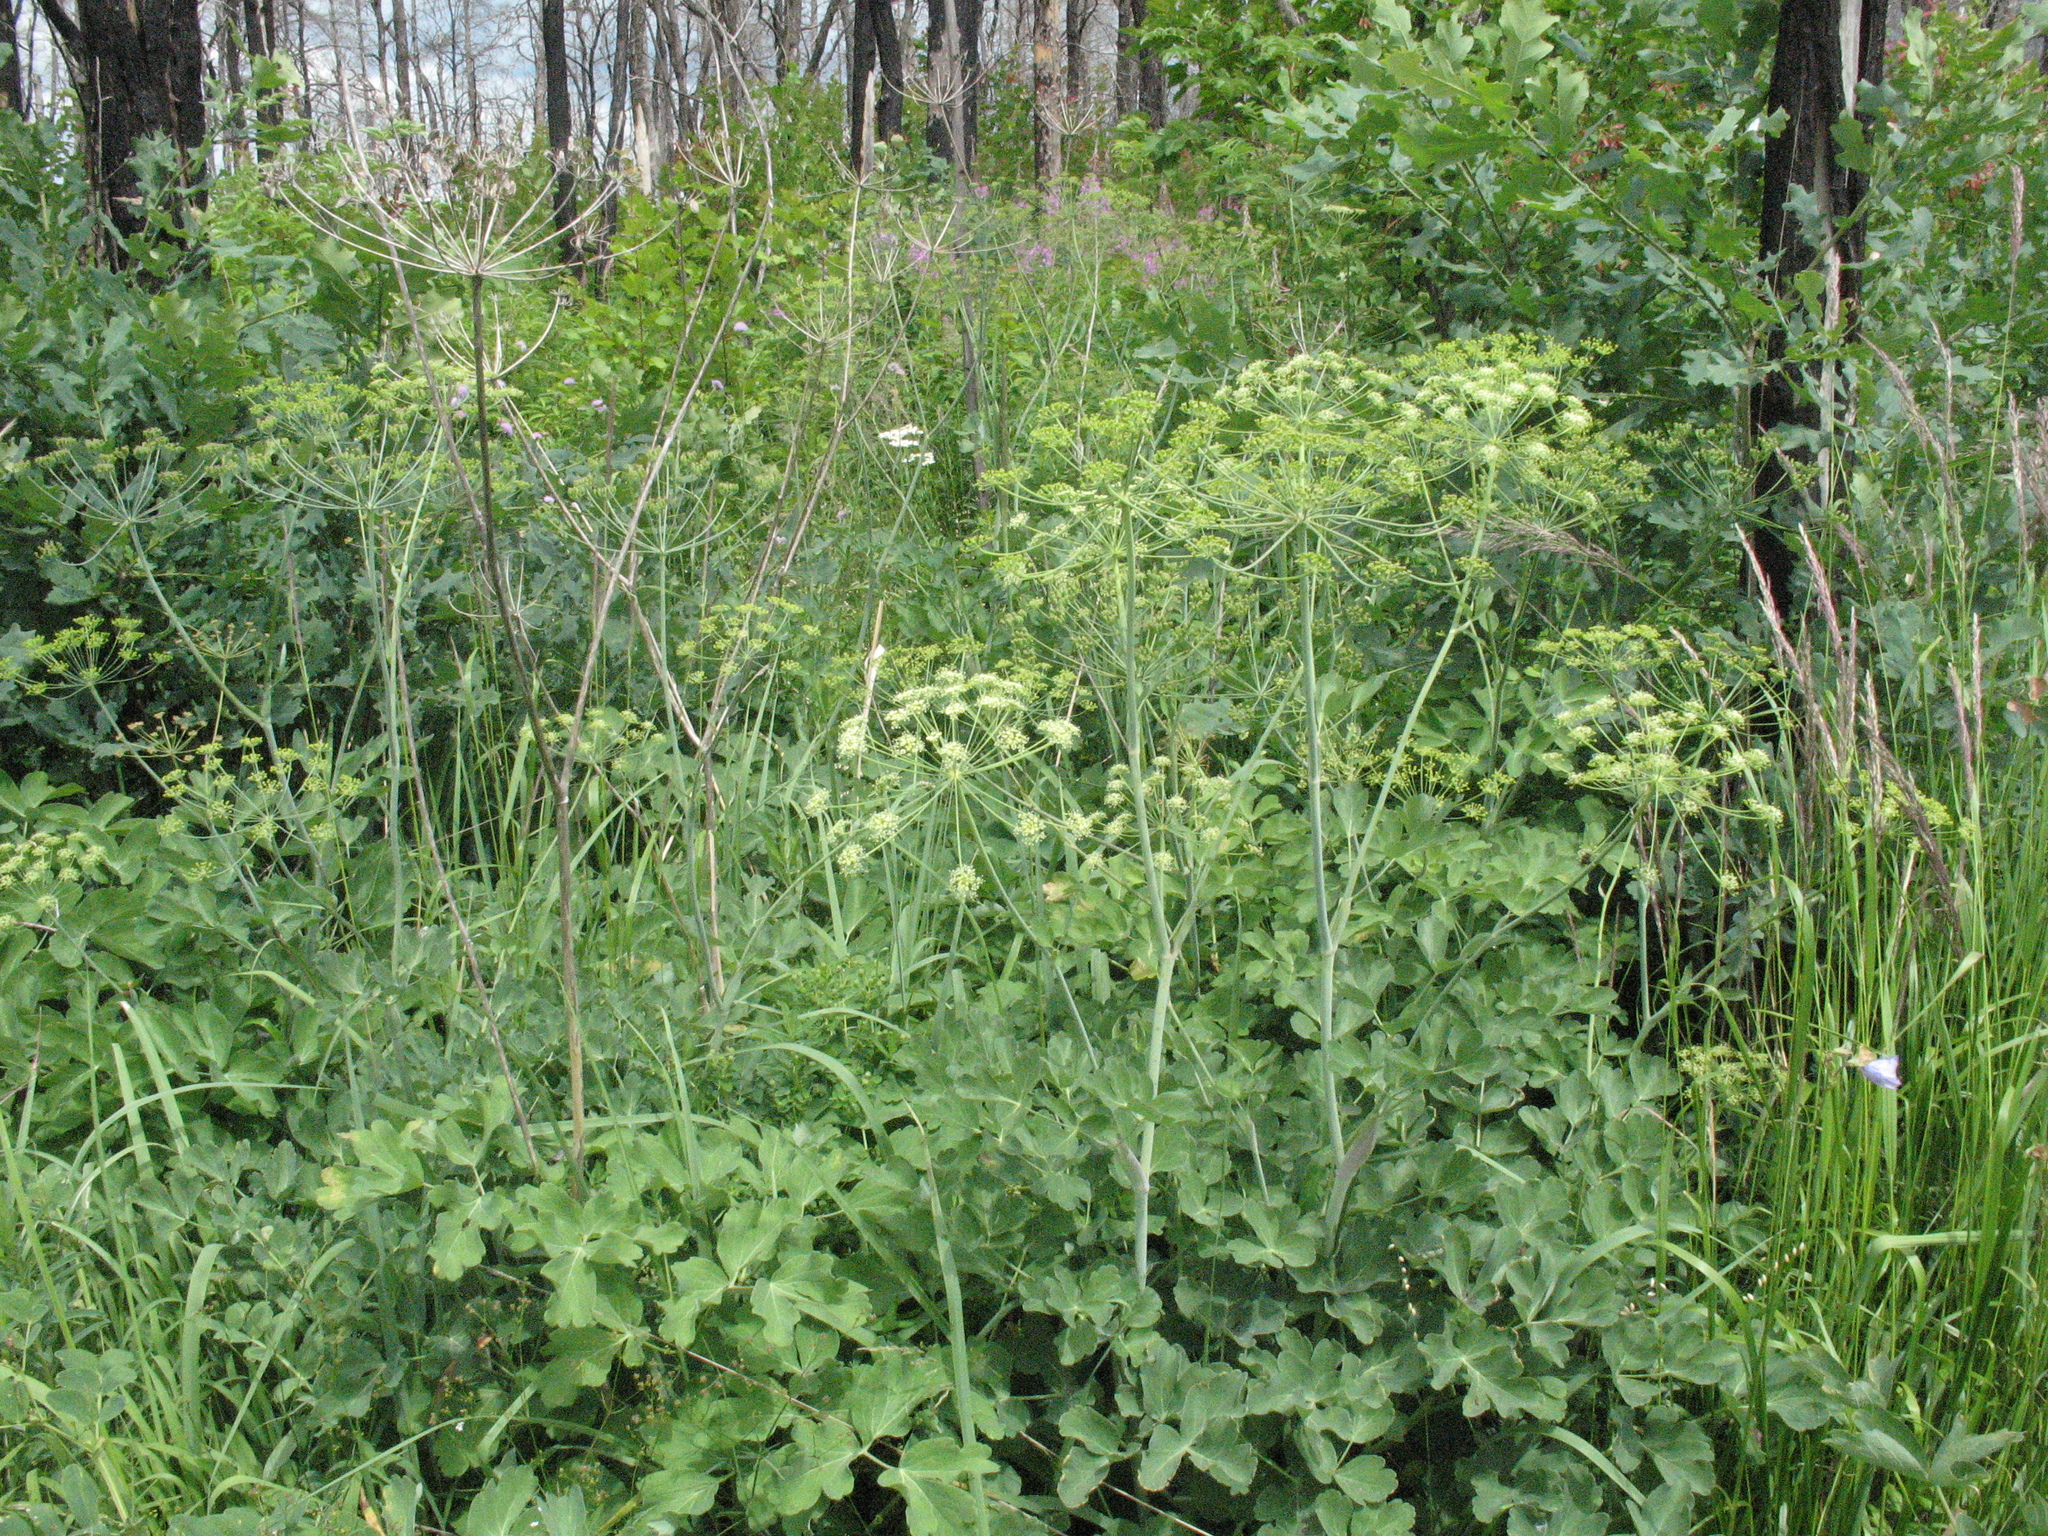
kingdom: Plantae
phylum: Tracheophyta
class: Magnoliopsida
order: Apiales
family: Apiaceae
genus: Laser
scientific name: Laser trilobum
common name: Laser
